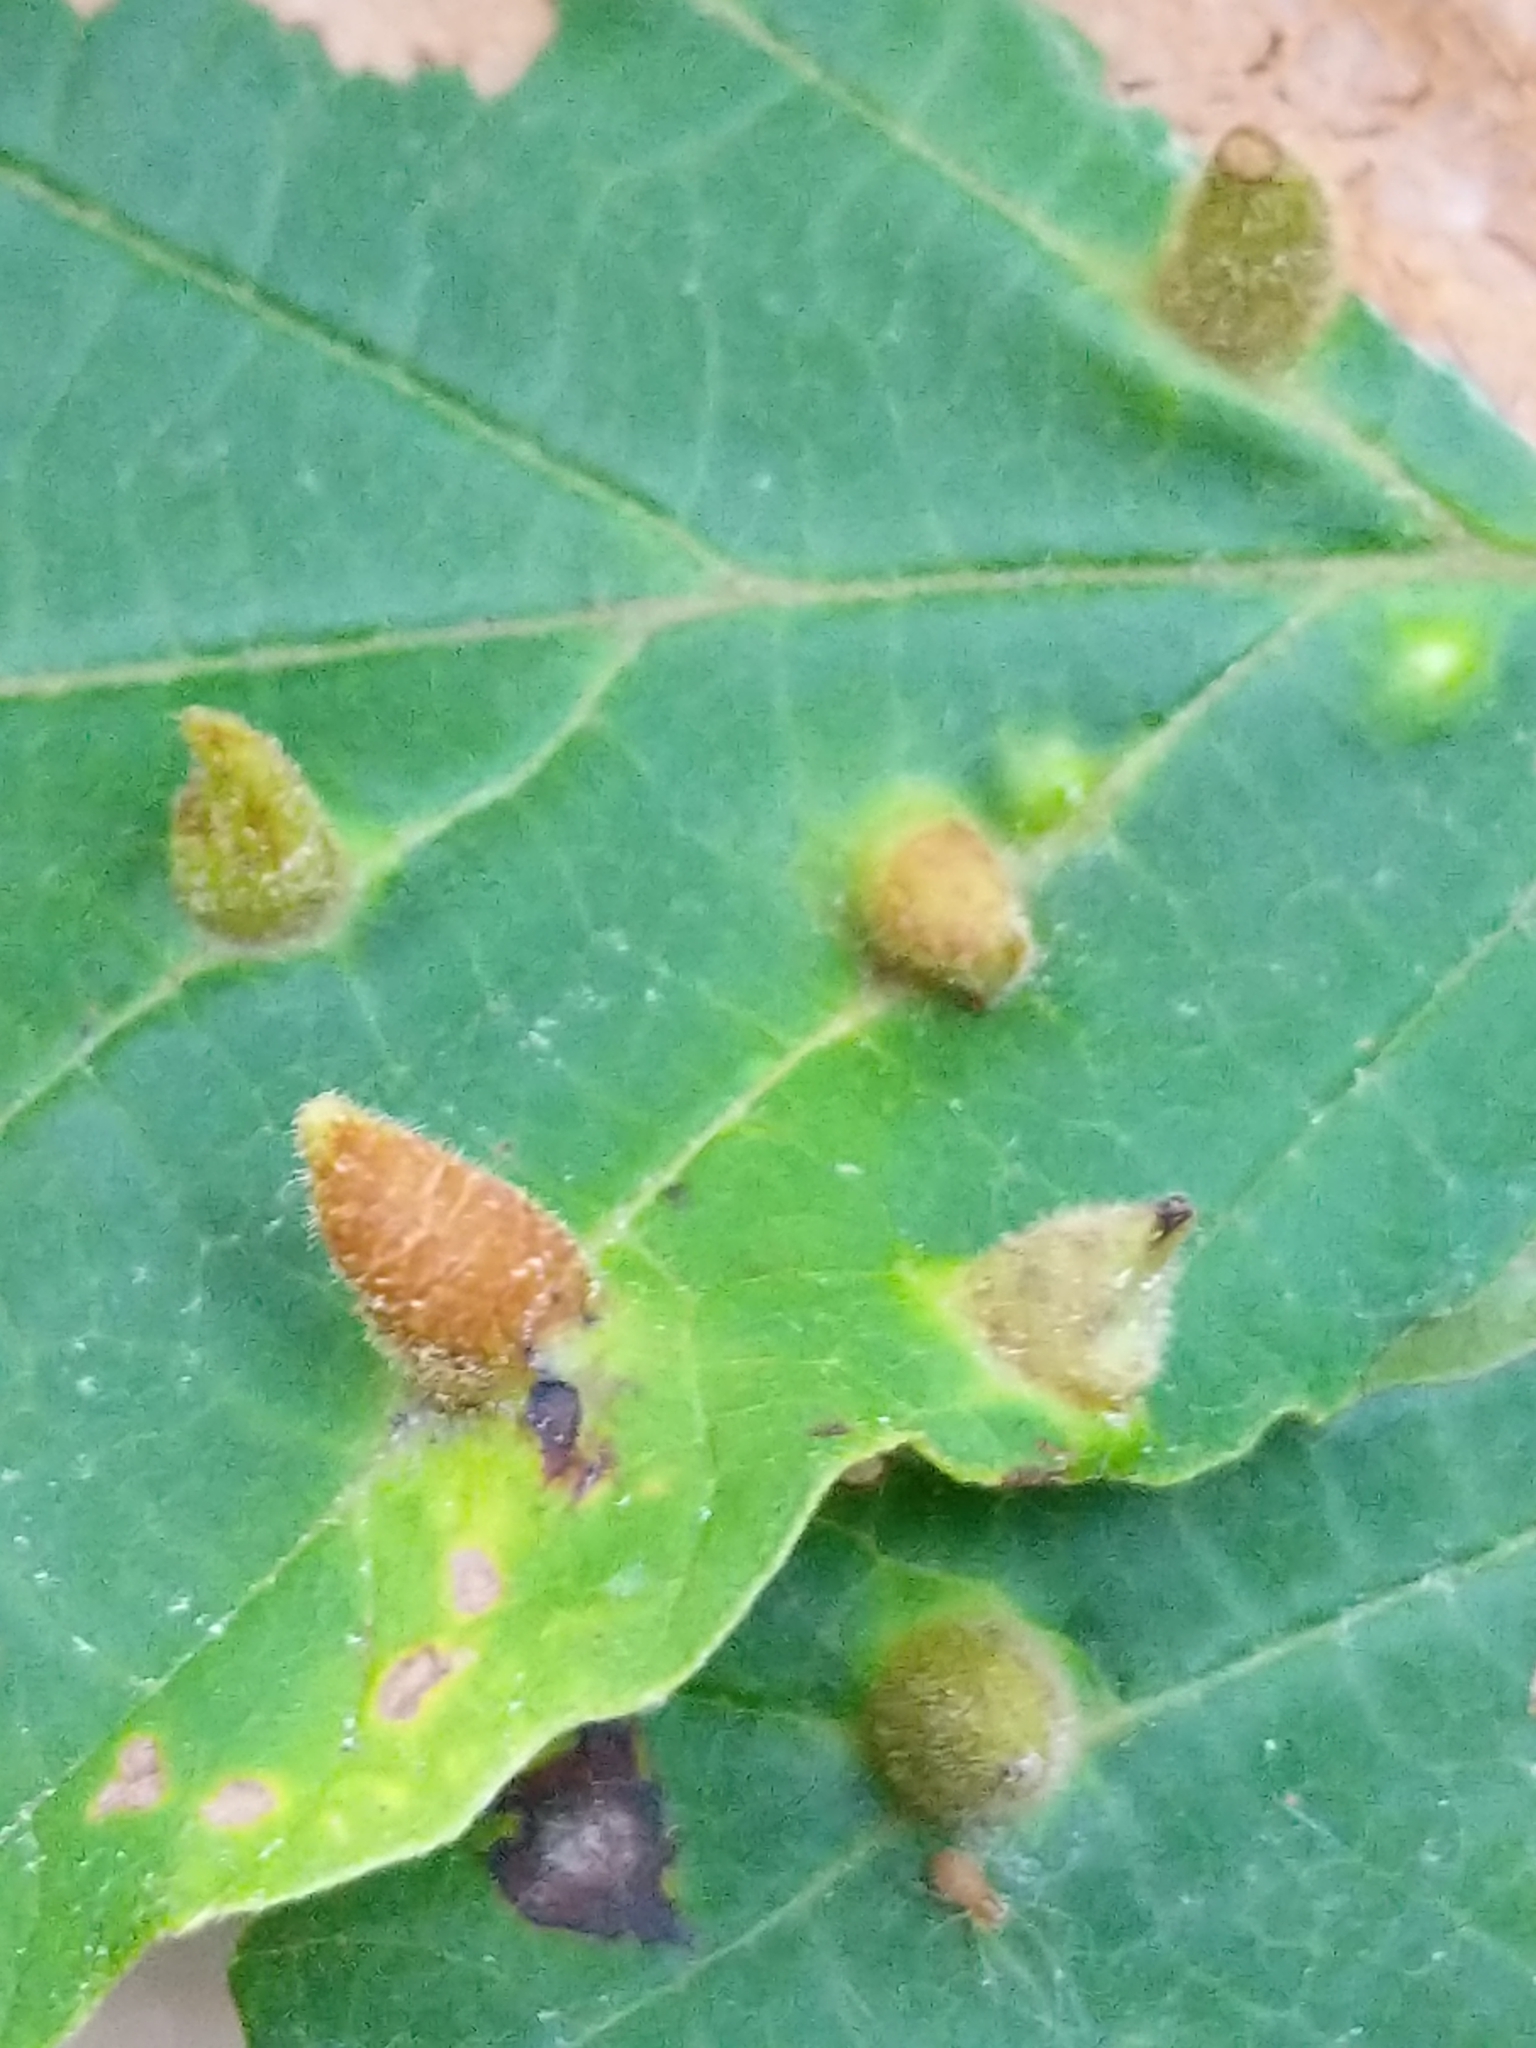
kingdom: Animalia
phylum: Arthropoda
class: Insecta
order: Hemiptera
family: Aphididae
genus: Hormaphis
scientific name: Hormaphis hamamelidis
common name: Witch-hazel cone gall aphid
